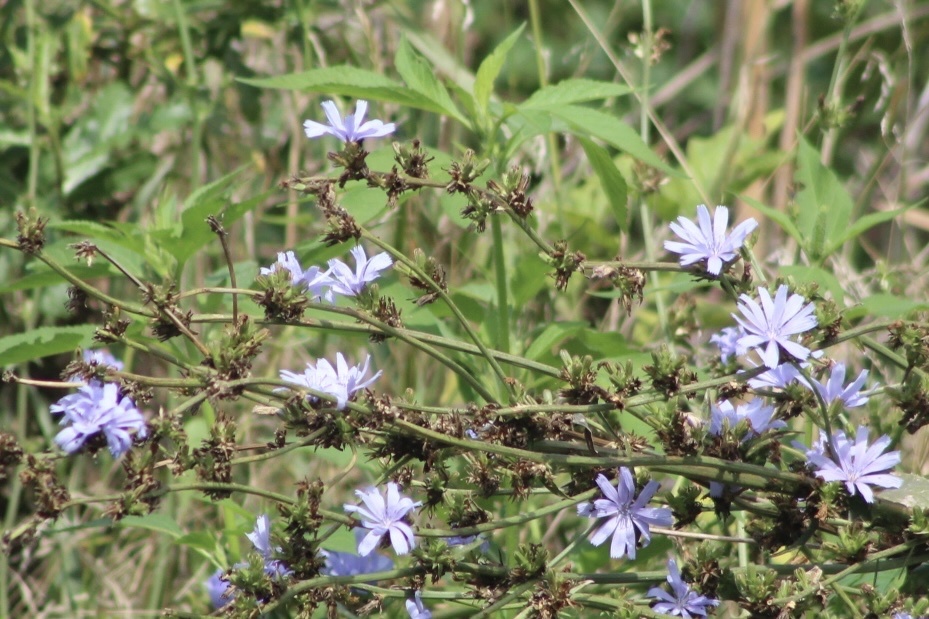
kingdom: Plantae
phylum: Tracheophyta
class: Magnoliopsida
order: Asterales
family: Asteraceae
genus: Cichorium
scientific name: Cichorium intybus
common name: Chicory
